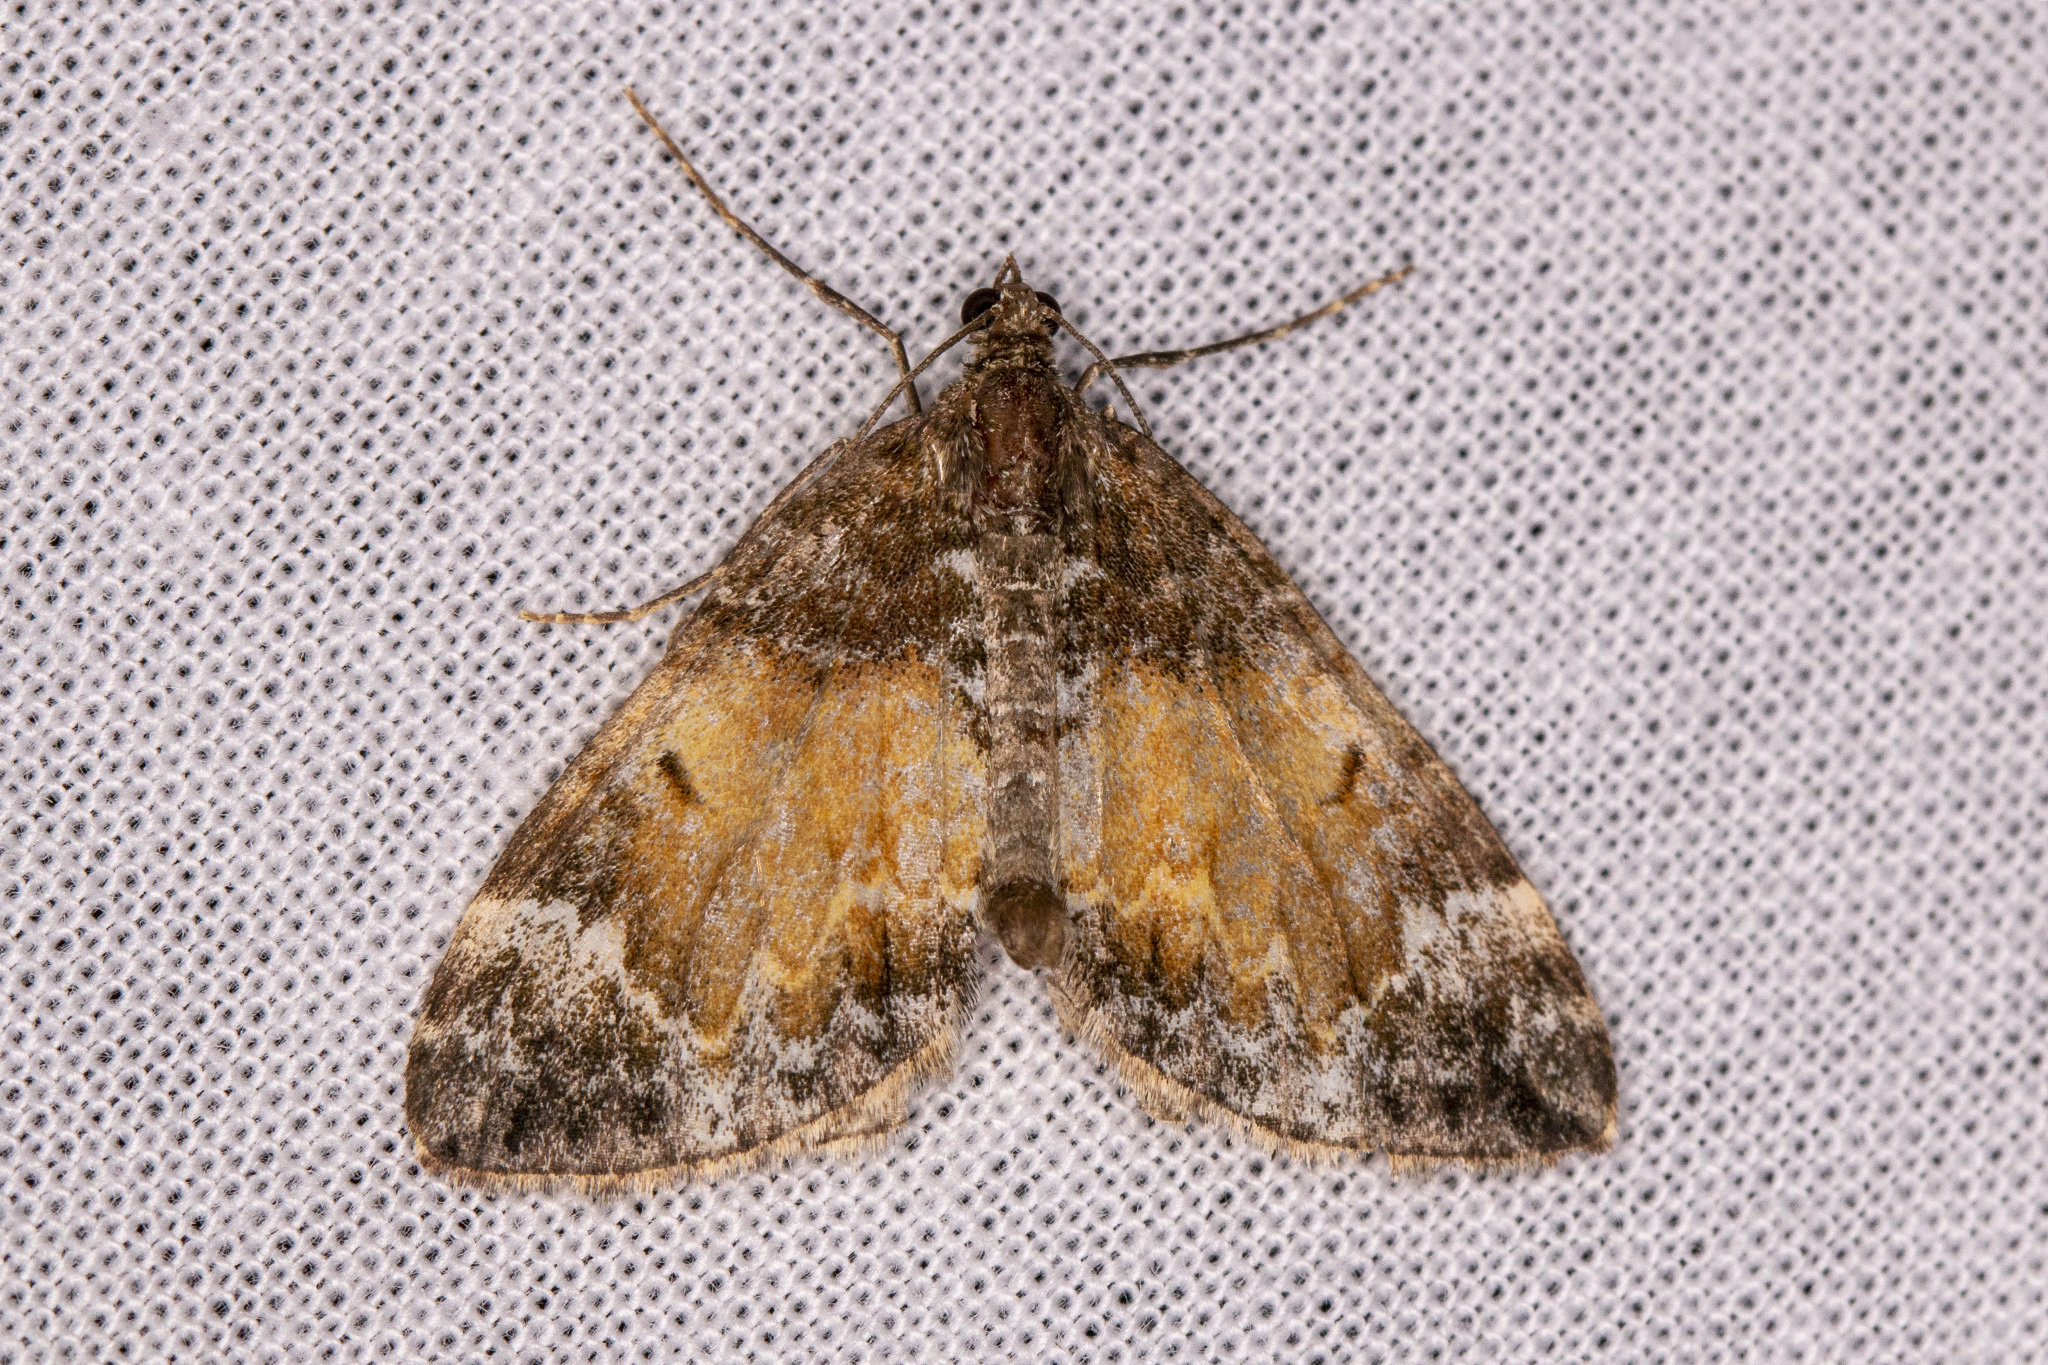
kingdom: Animalia
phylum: Arthropoda
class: Insecta
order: Lepidoptera
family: Geometridae
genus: Dysstroma
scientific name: Dysstroma truncata
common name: Common marbled carpet
